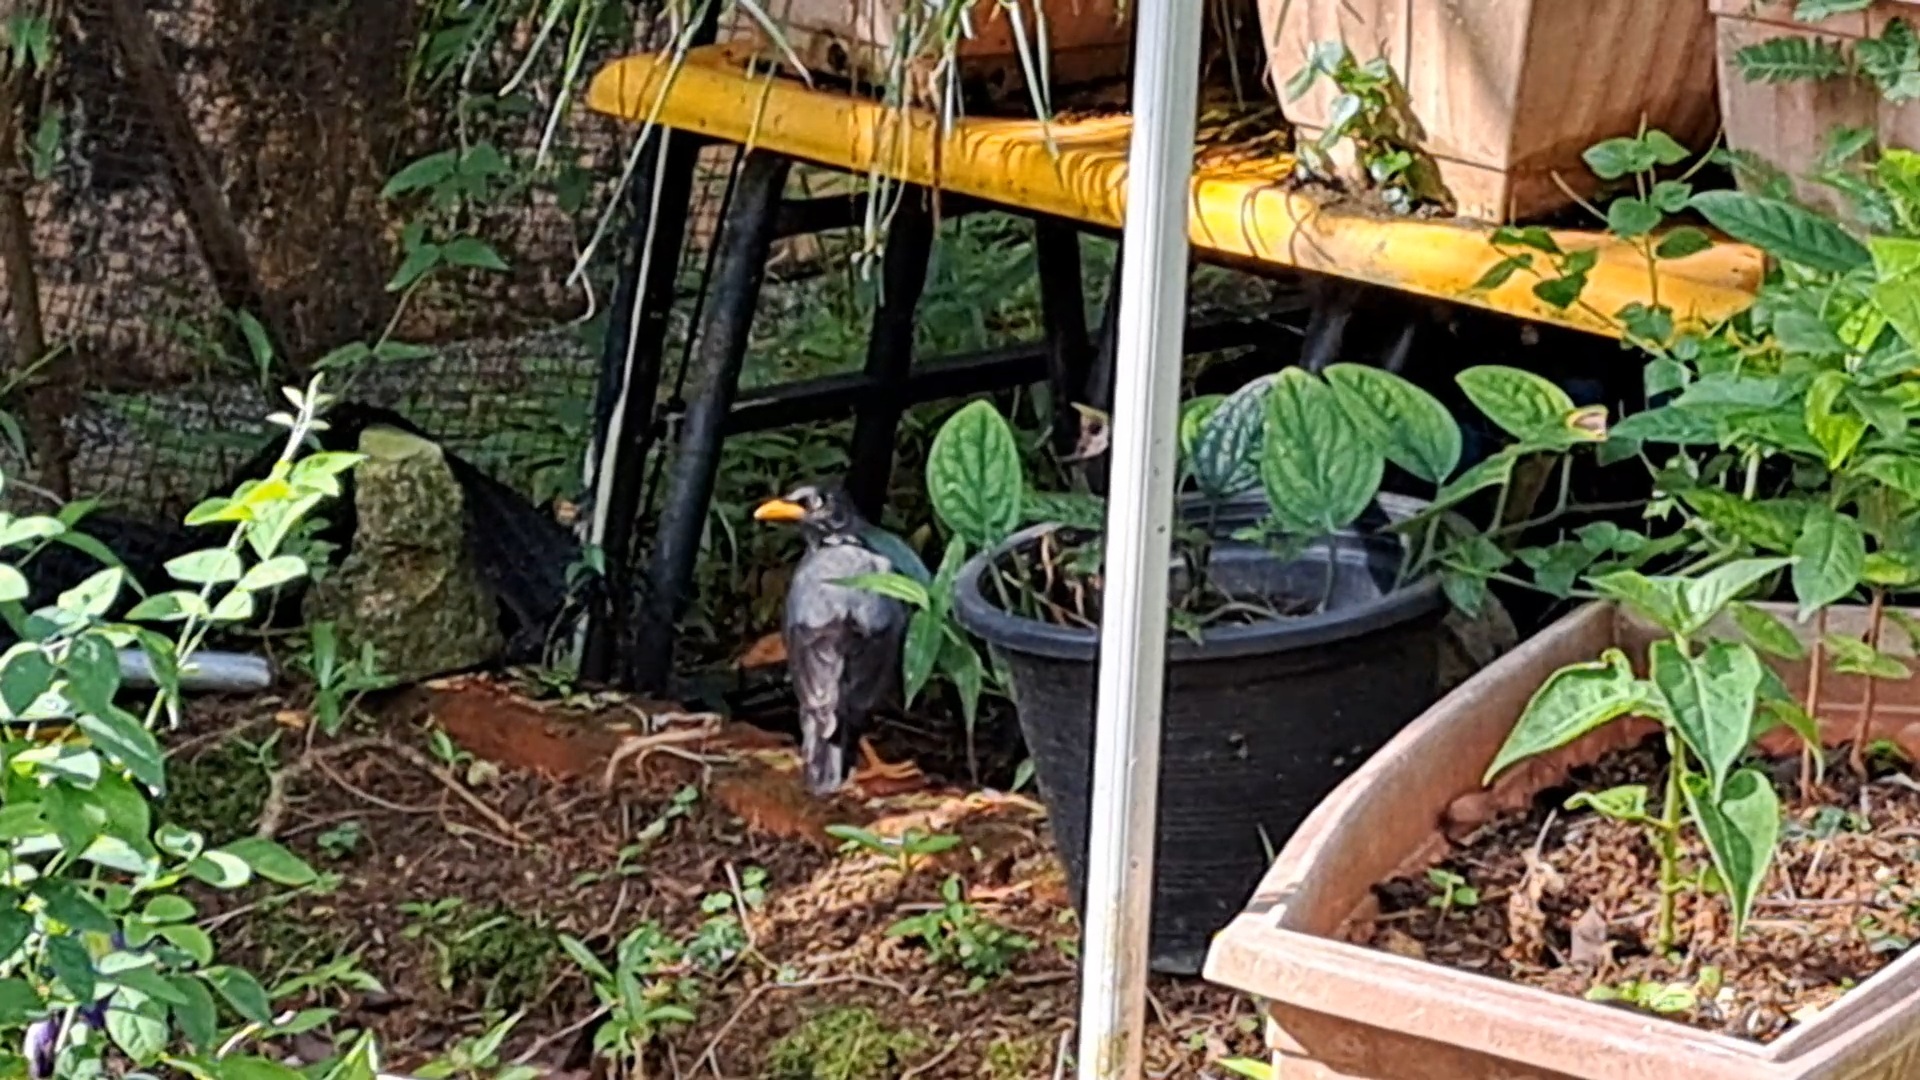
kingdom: Animalia
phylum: Chordata
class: Aves
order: Passeriformes
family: Sturnidae
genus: Acridotheres
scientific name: Acridotheres javanicus
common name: Javan myna
